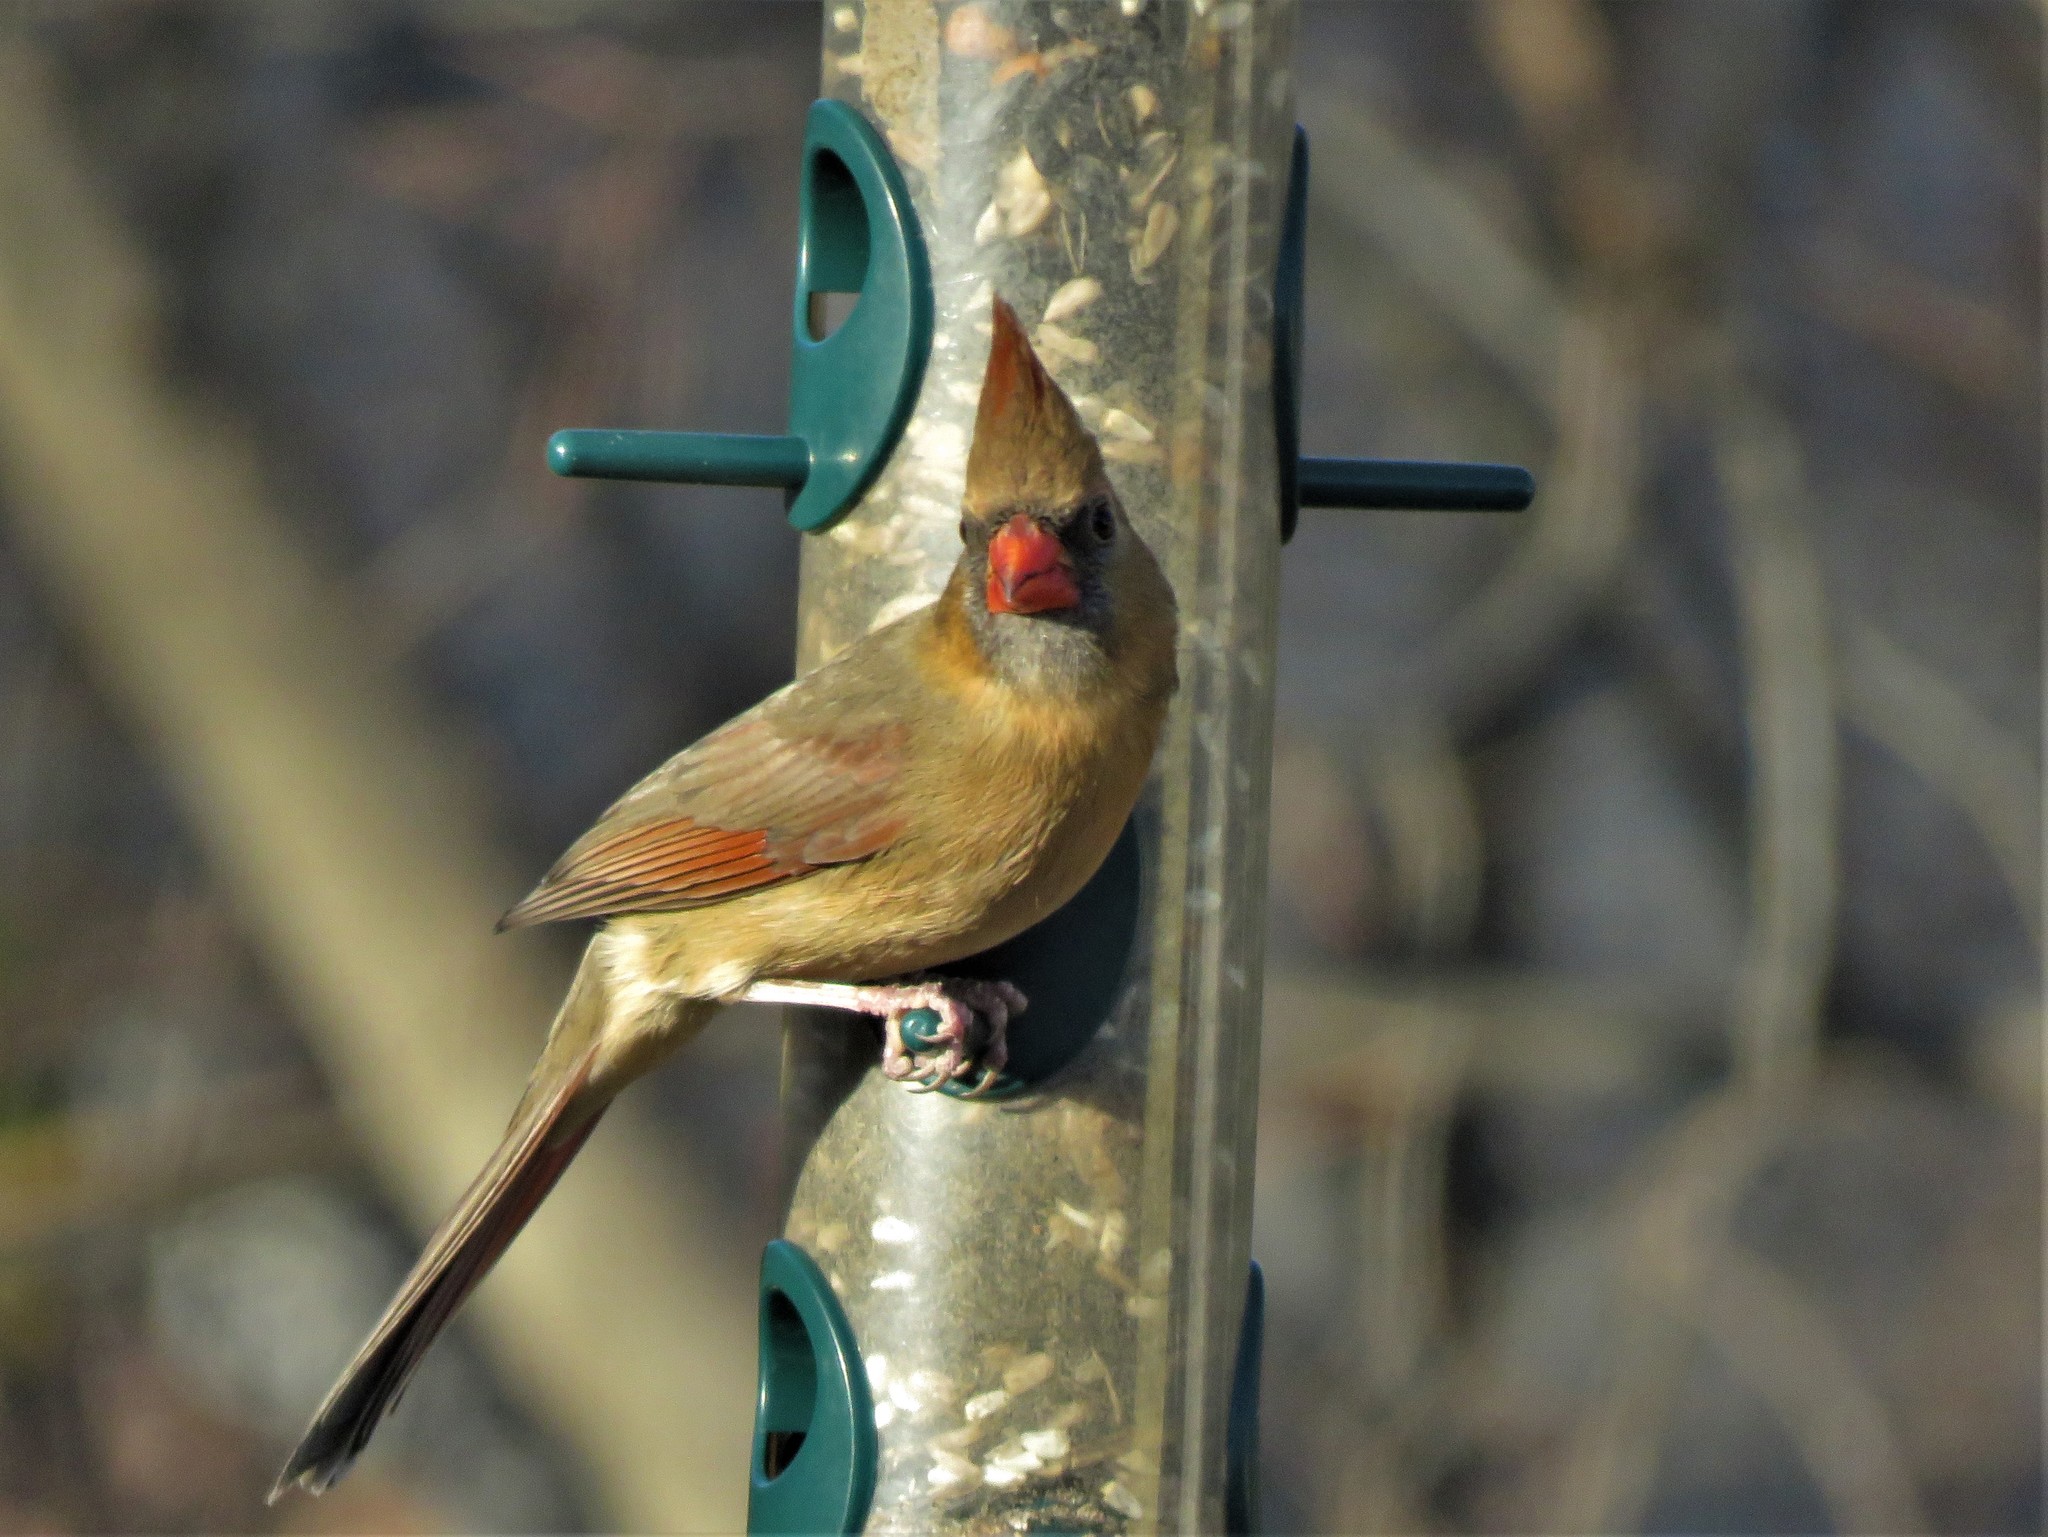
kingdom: Animalia
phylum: Chordata
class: Aves
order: Passeriformes
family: Cardinalidae
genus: Cardinalis
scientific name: Cardinalis cardinalis
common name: Northern cardinal
